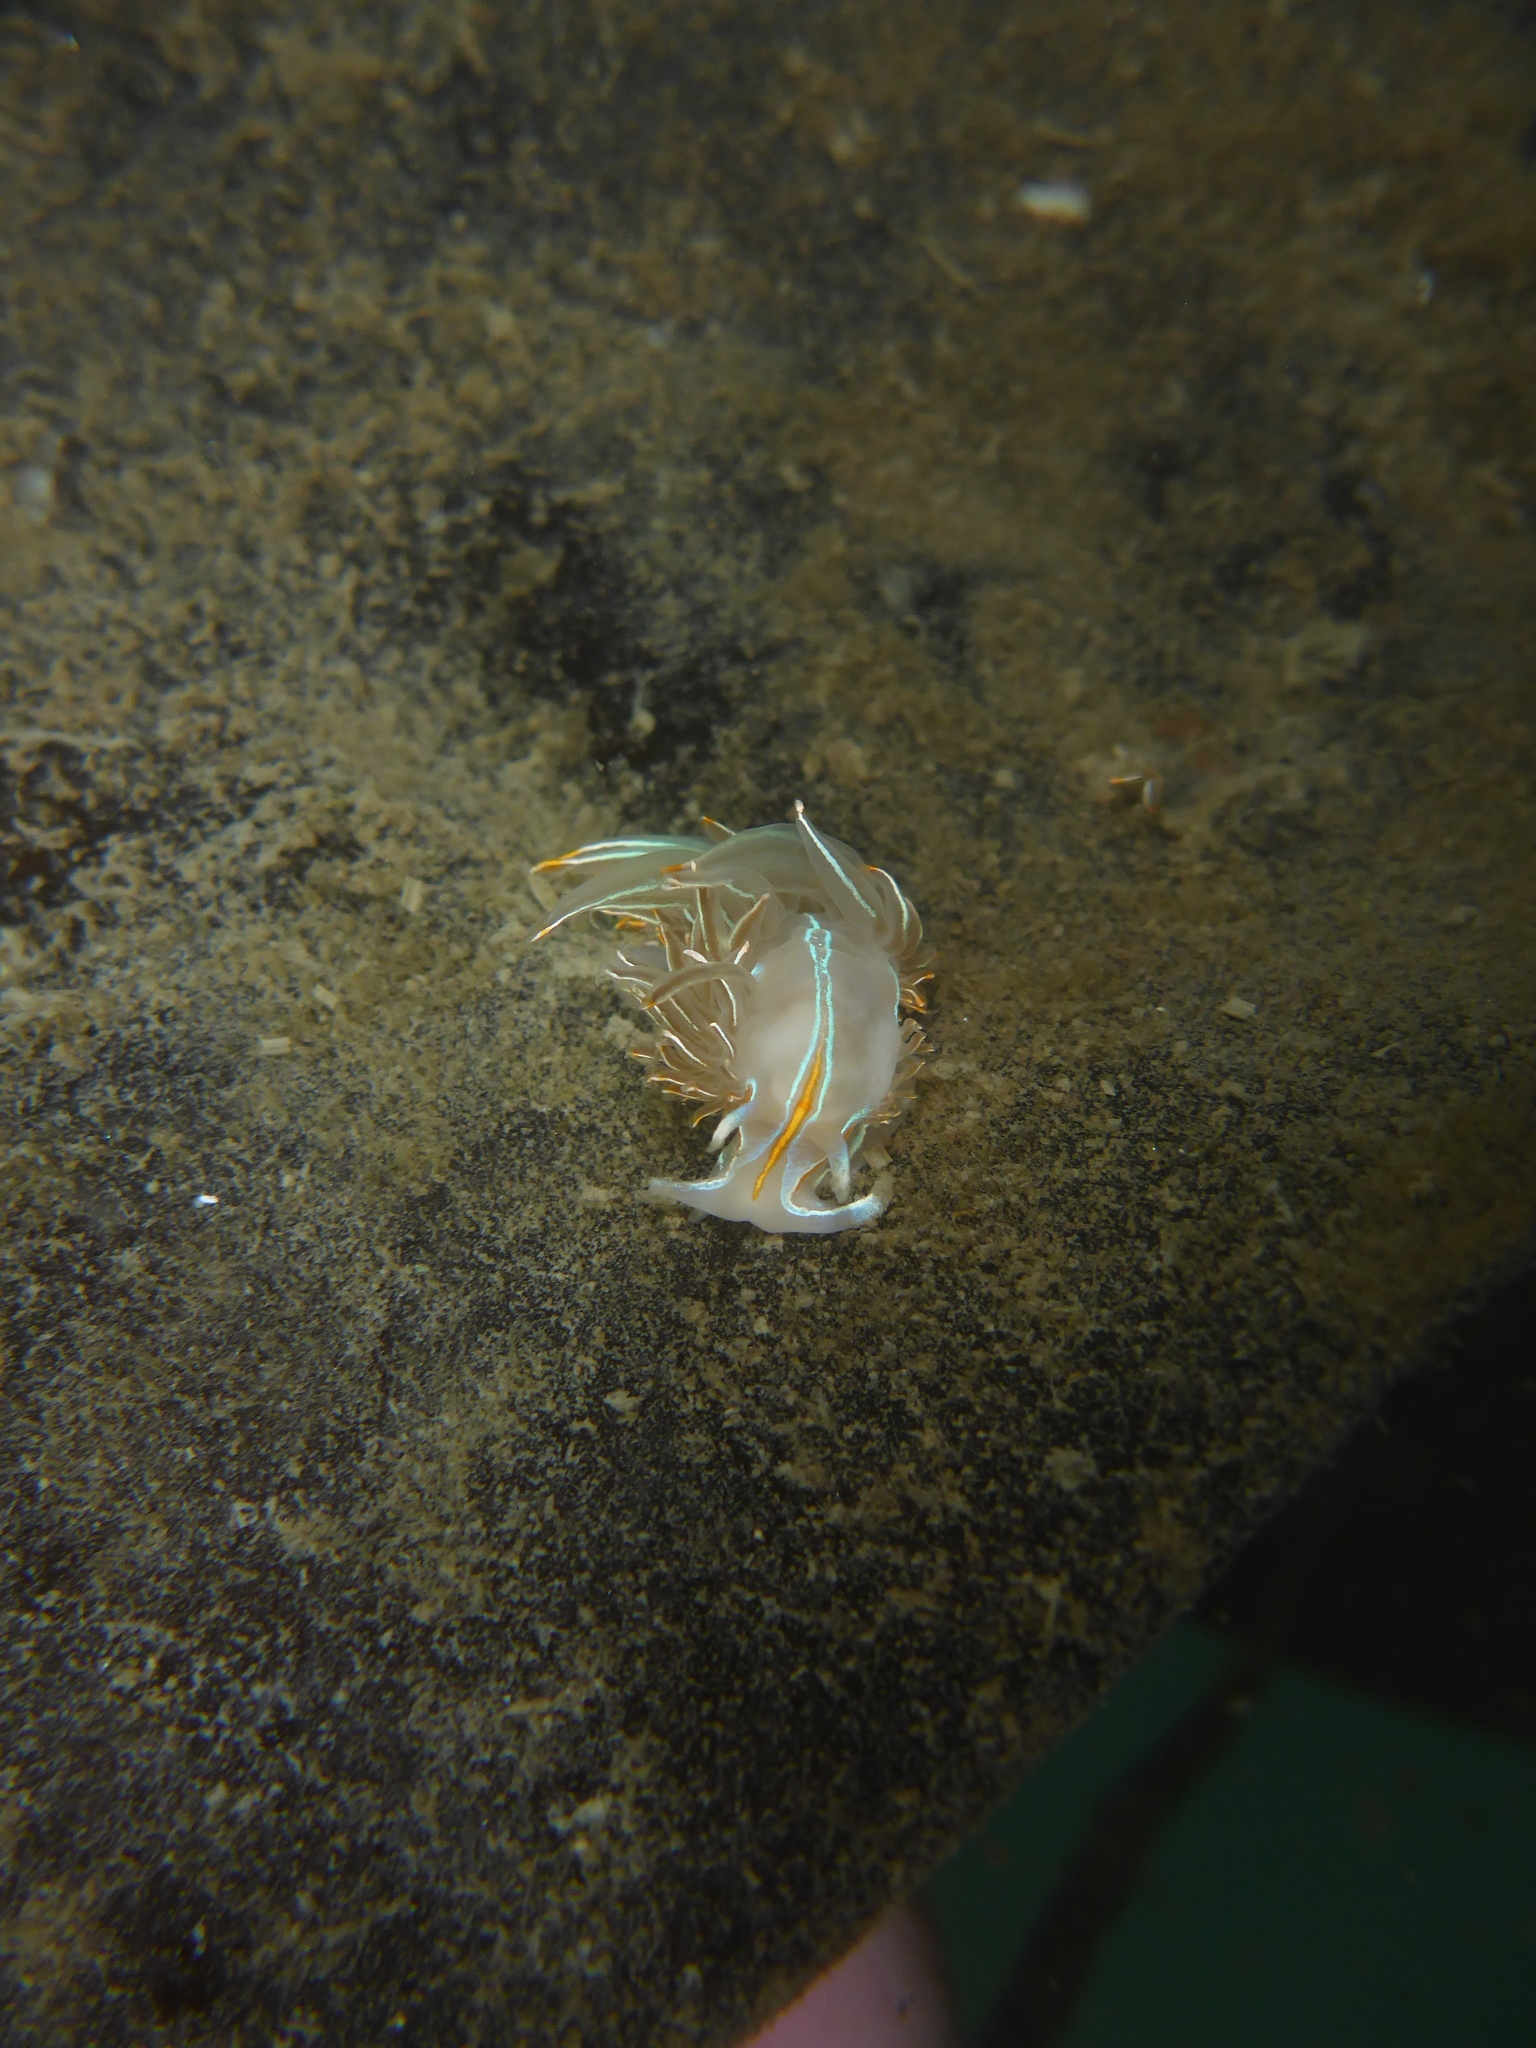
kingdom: Animalia
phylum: Mollusca
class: Gastropoda
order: Nudibranchia
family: Myrrhinidae
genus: Hermissenda
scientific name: Hermissenda crassicornis
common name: Hermissenda
